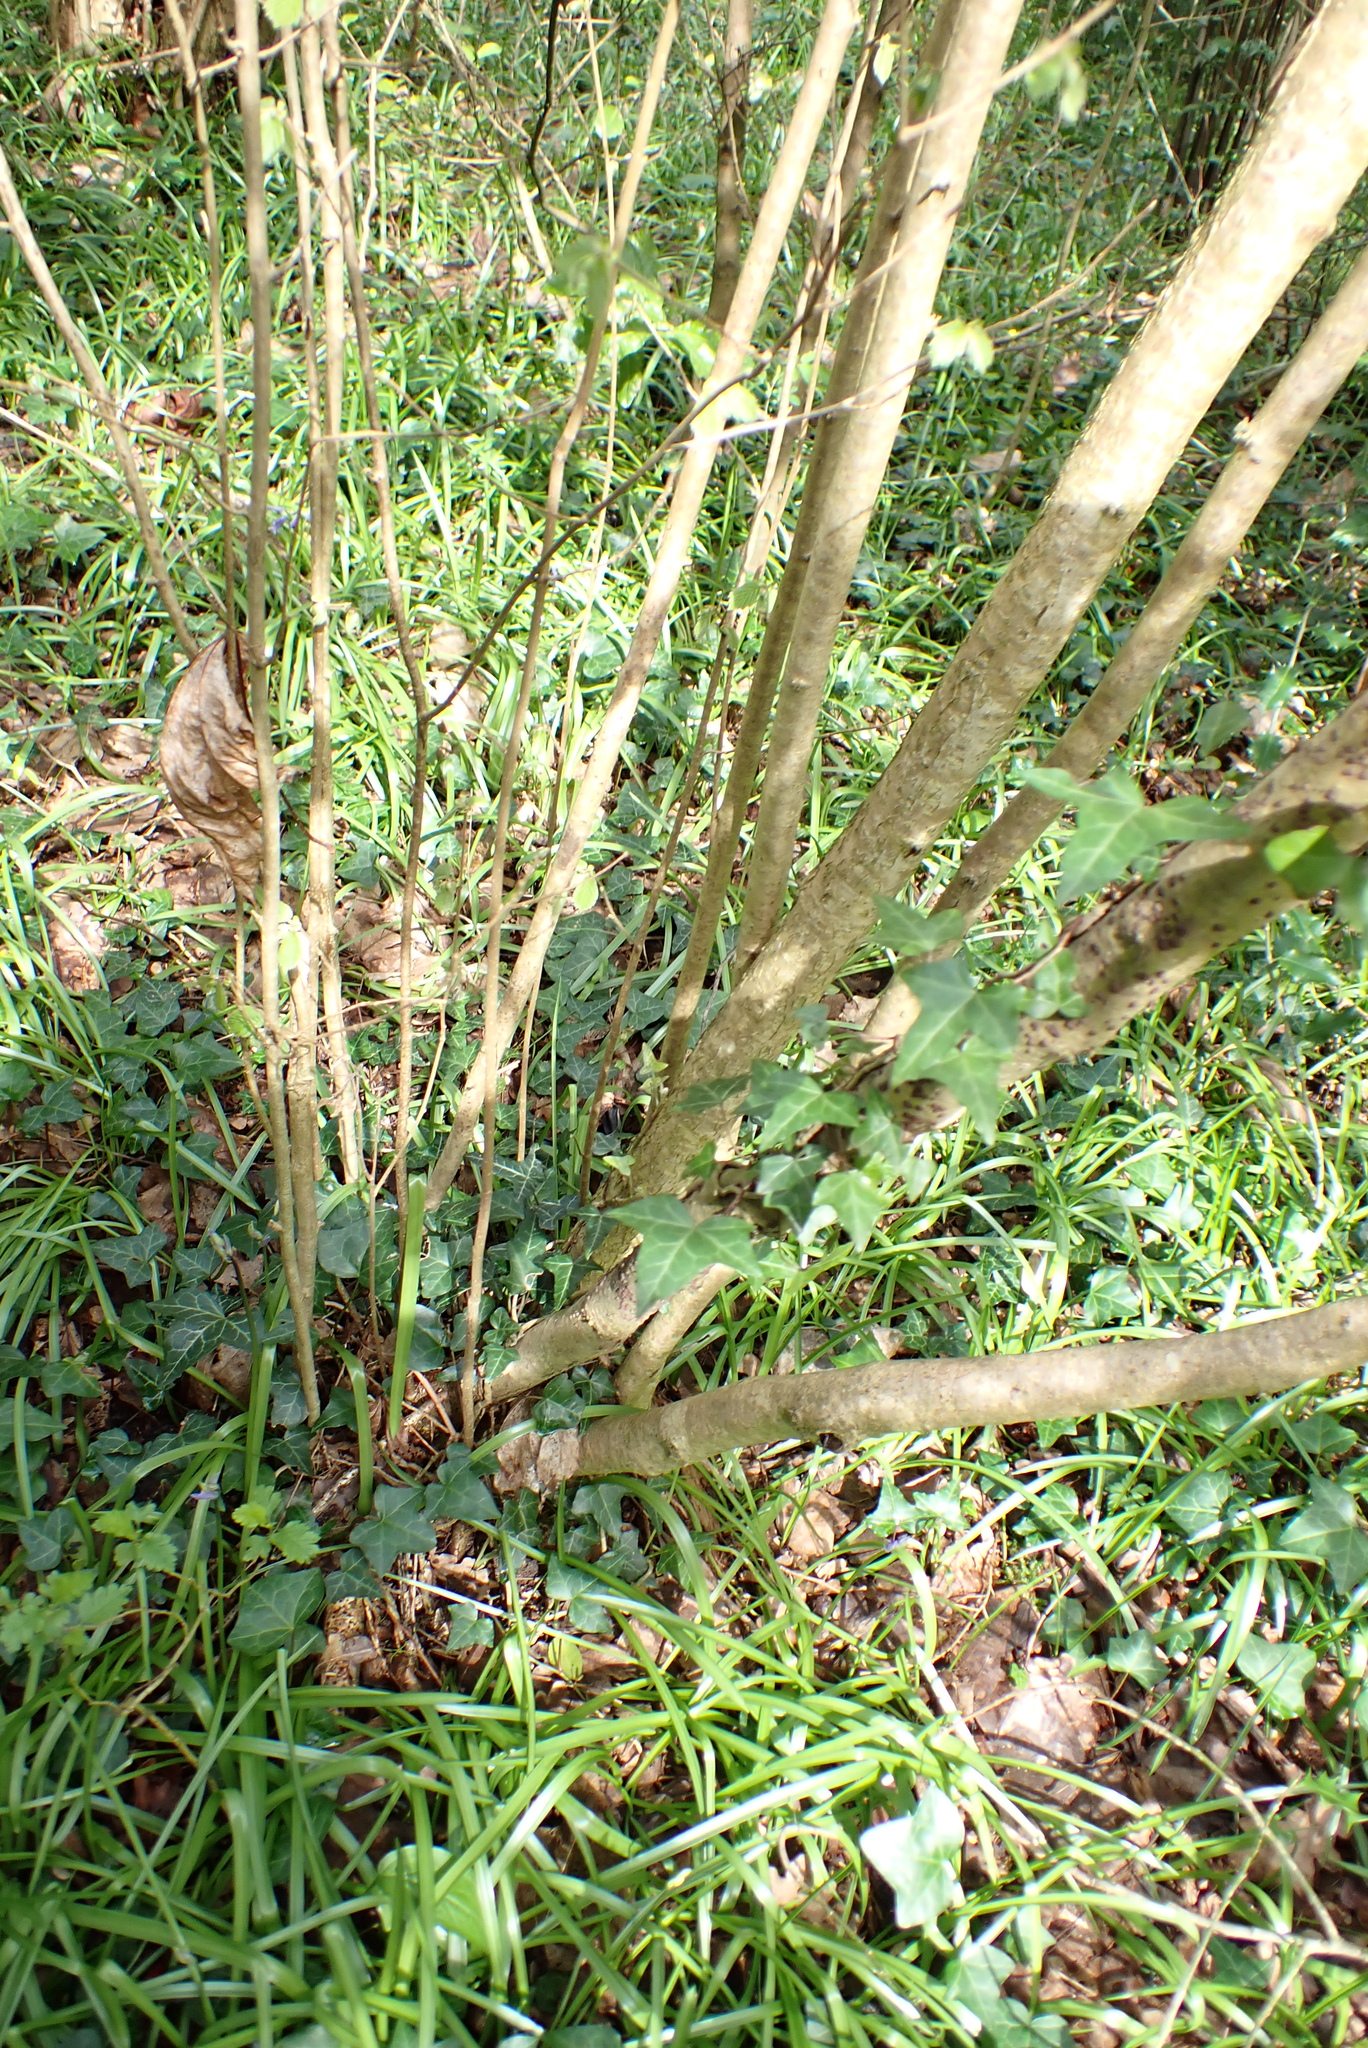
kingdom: Plantae
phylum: Tracheophyta
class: Magnoliopsida
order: Fagales
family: Betulaceae
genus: Corylus
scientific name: Corylus avellana
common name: European hazel
